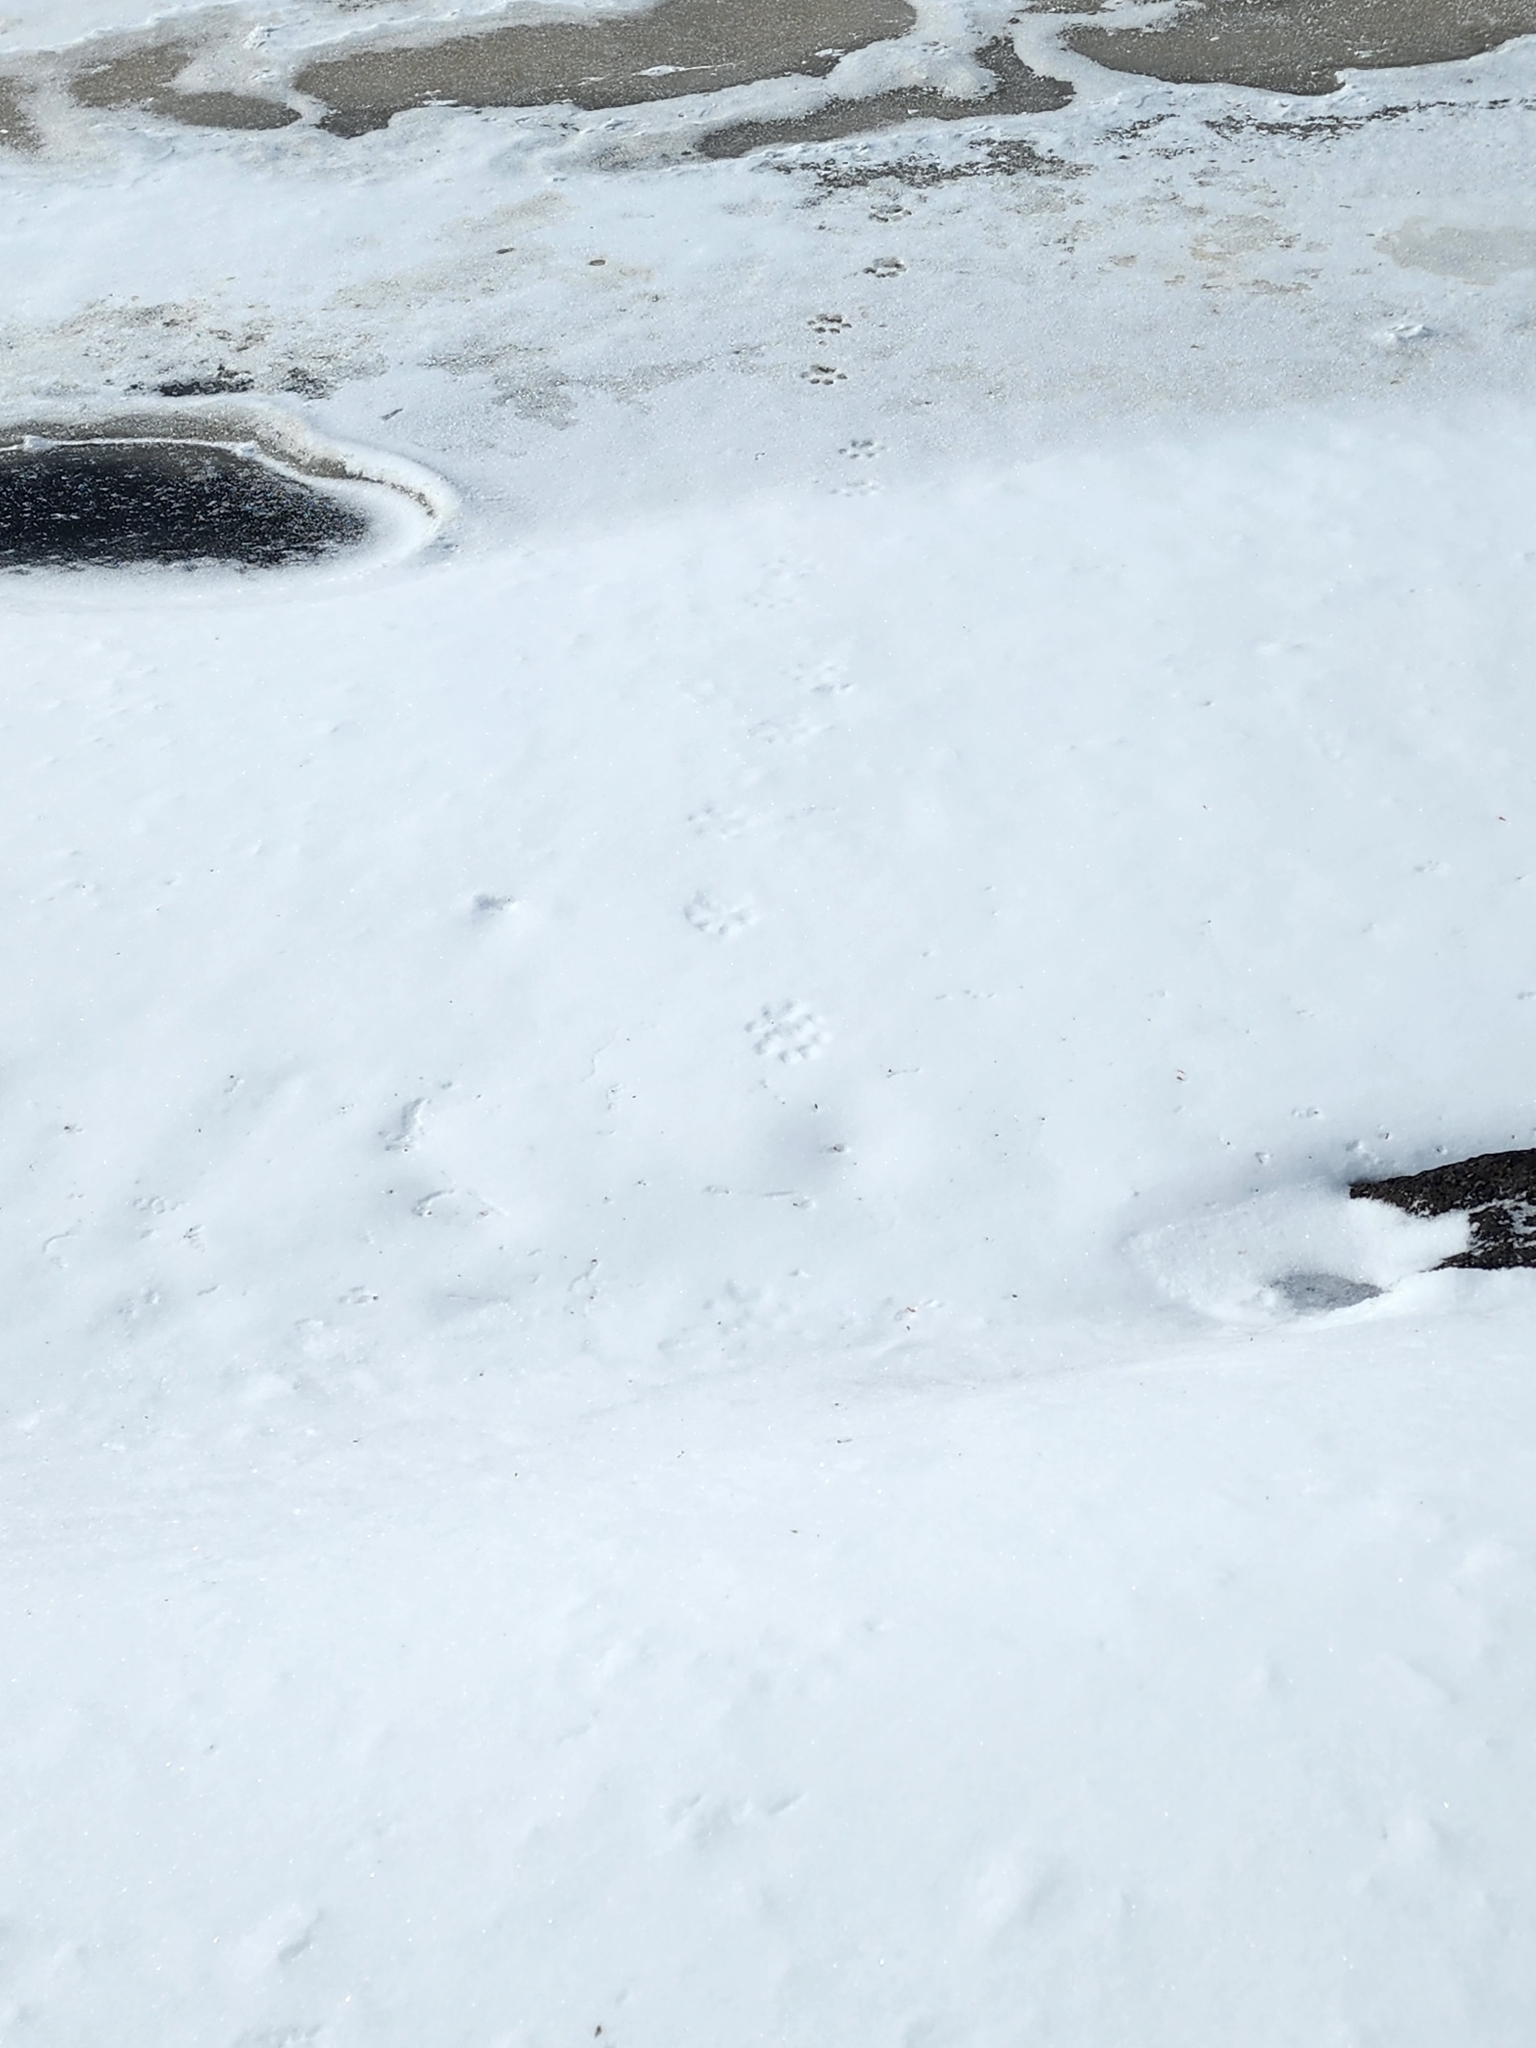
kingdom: Animalia
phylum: Chordata
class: Mammalia
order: Carnivora
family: Felidae
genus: Lynx
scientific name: Lynx canadensis
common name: Canadian lynx
